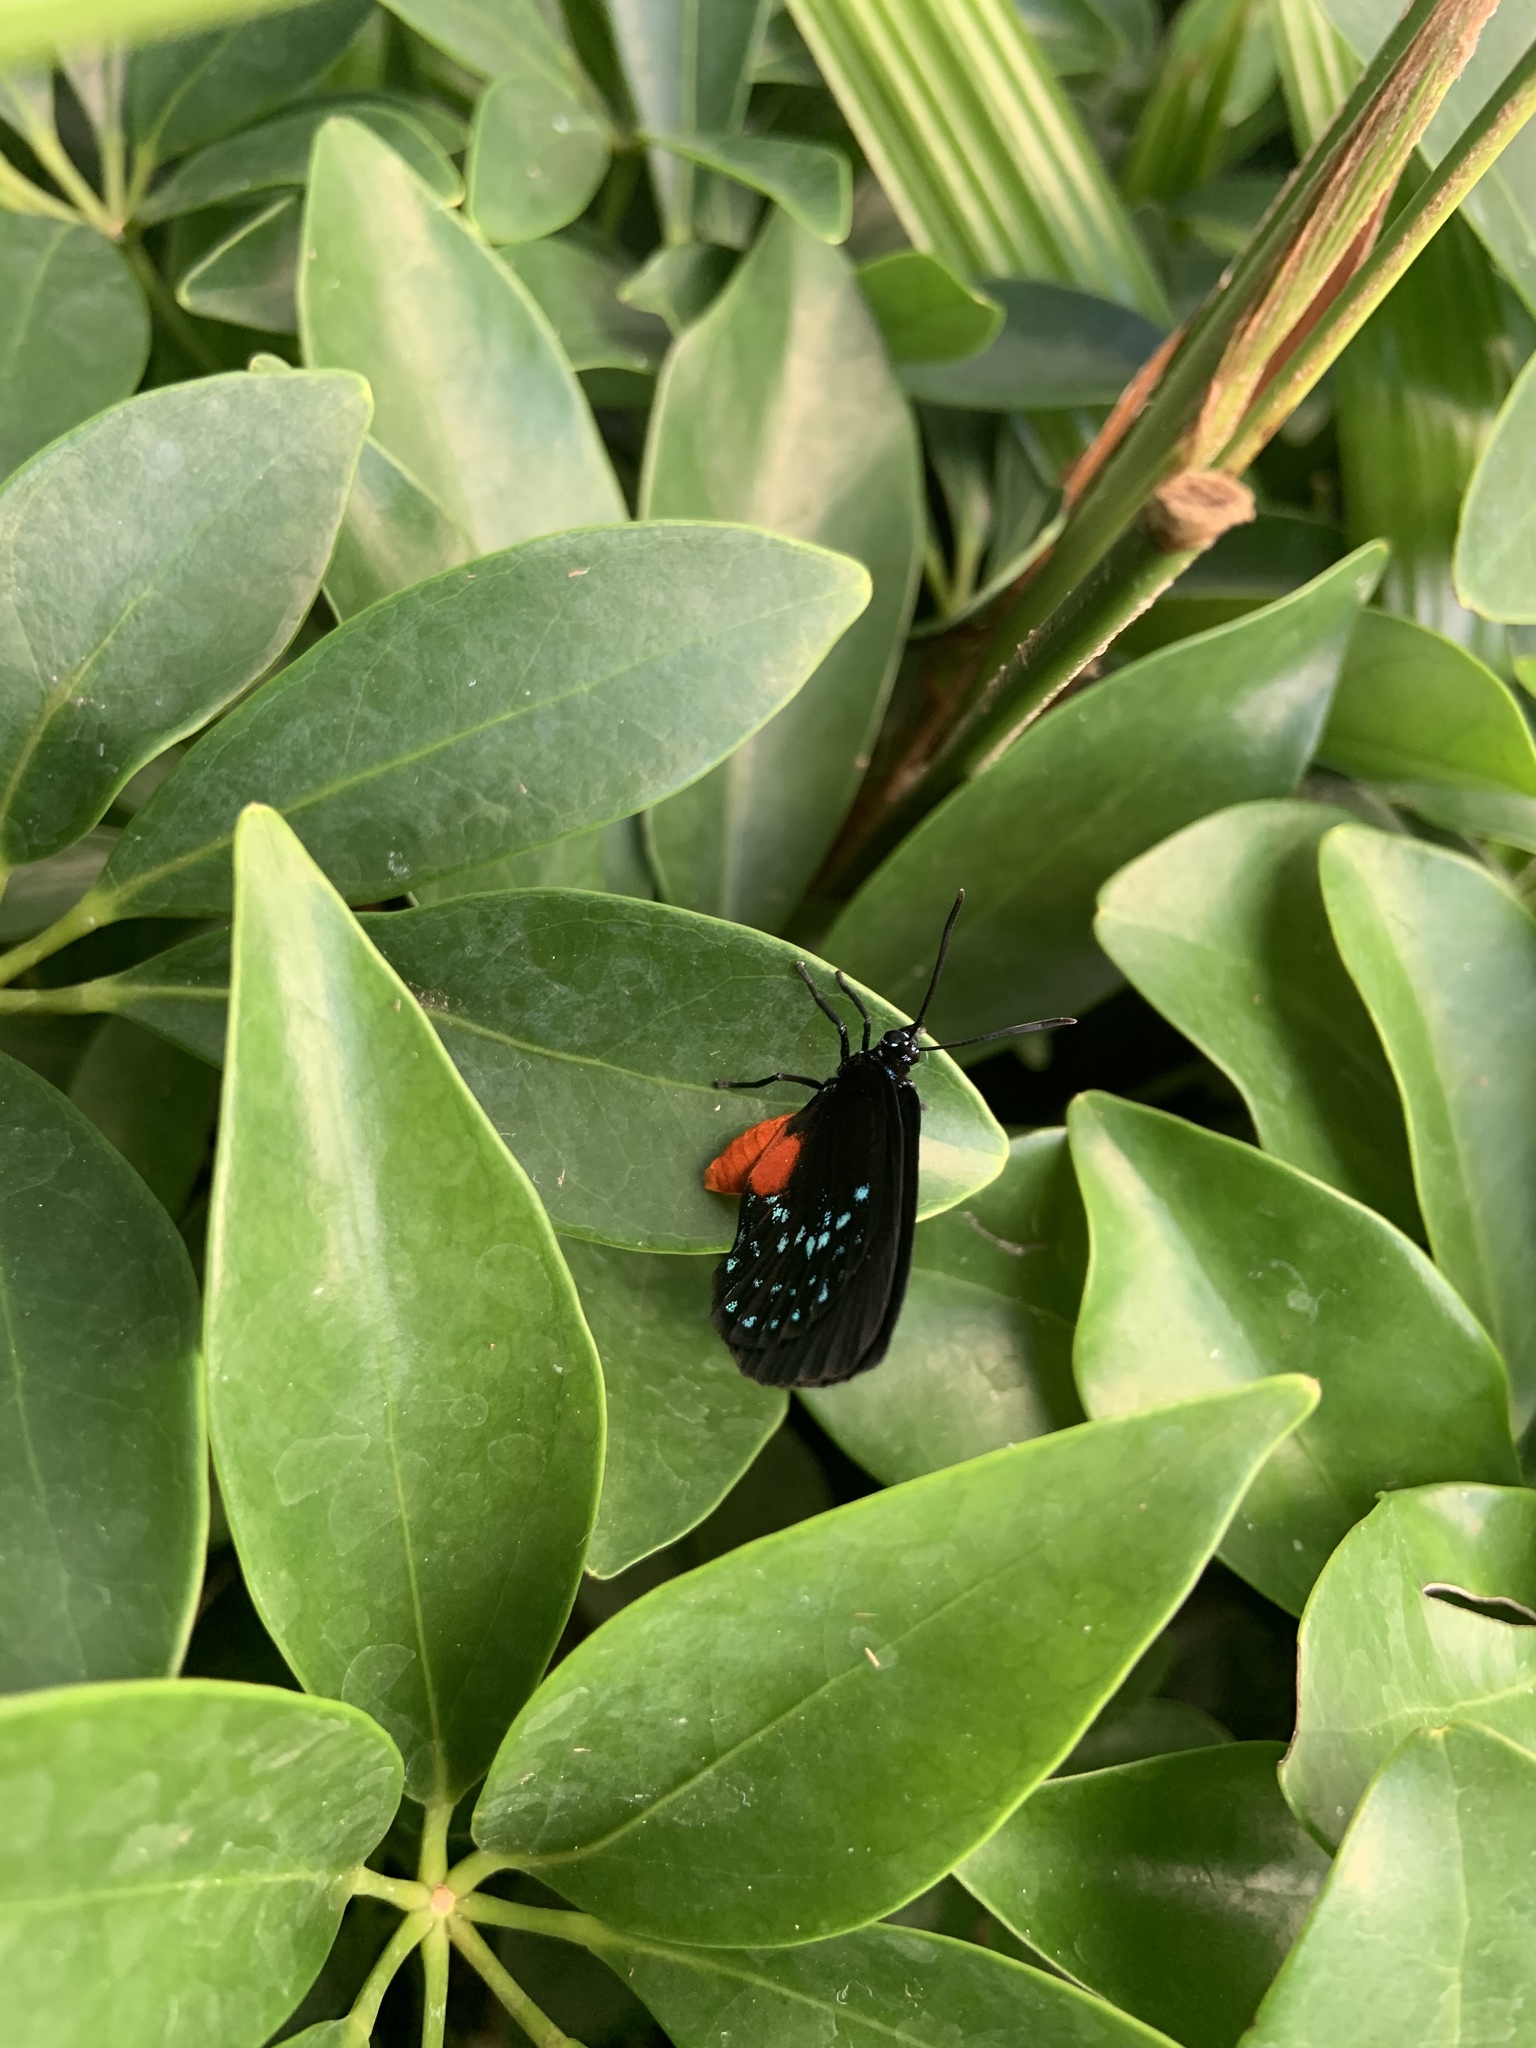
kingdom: Animalia
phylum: Arthropoda
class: Insecta
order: Lepidoptera
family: Lycaenidae
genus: Eumaeus
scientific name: Eumaeus atala
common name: Atala
